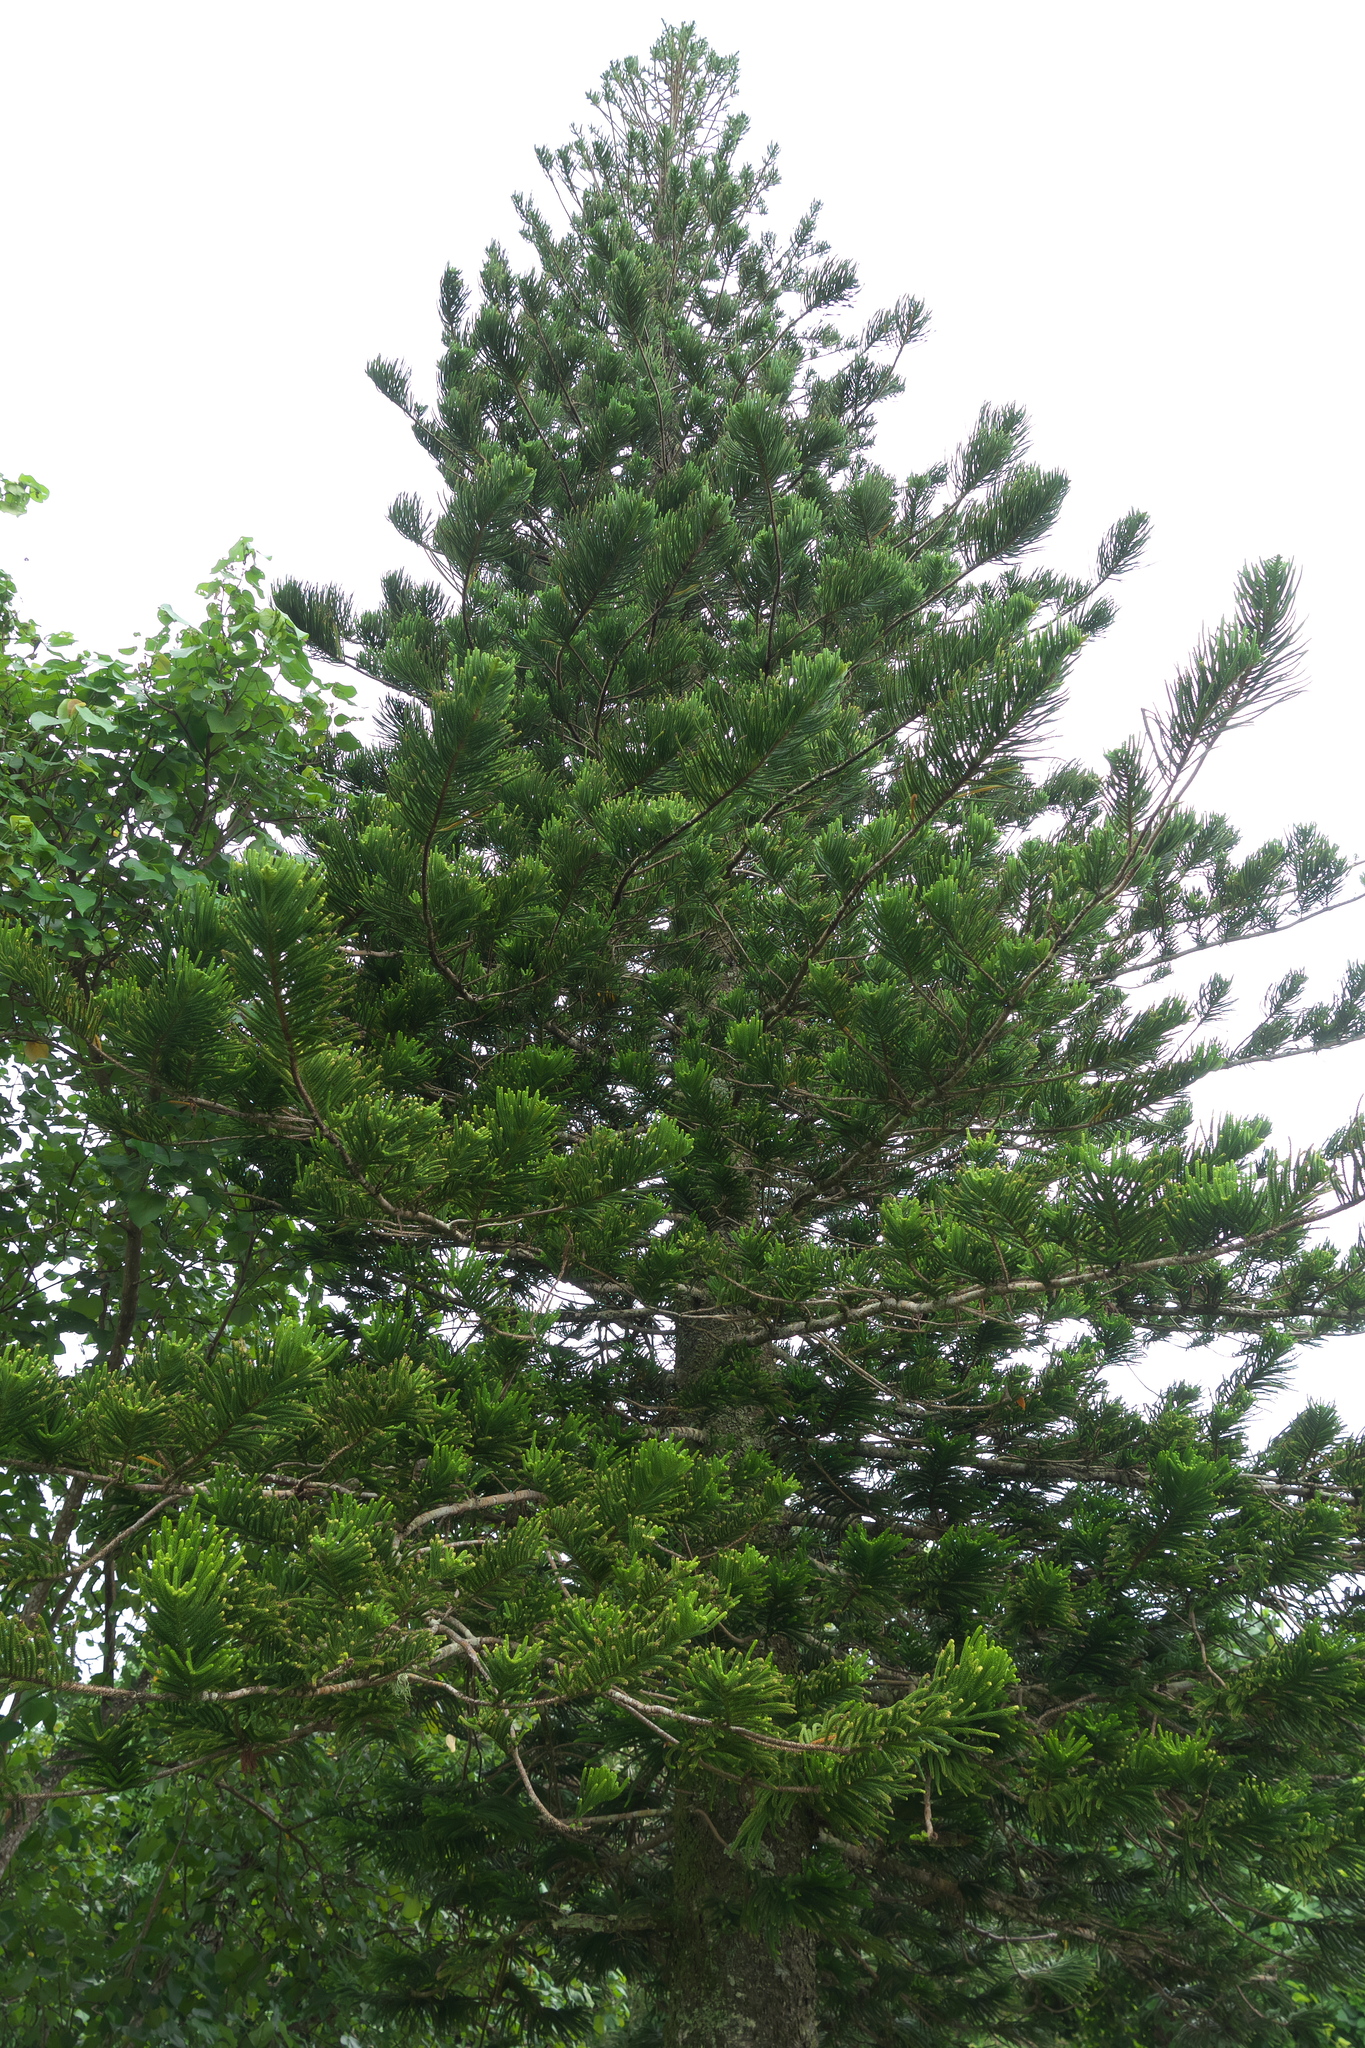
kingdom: Plantae
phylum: Tracheophyta
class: Pinopsida
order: Pinales
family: Araucariaceae
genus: Araucaria
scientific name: Araucaria columnaris
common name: Coral reef araucaria
